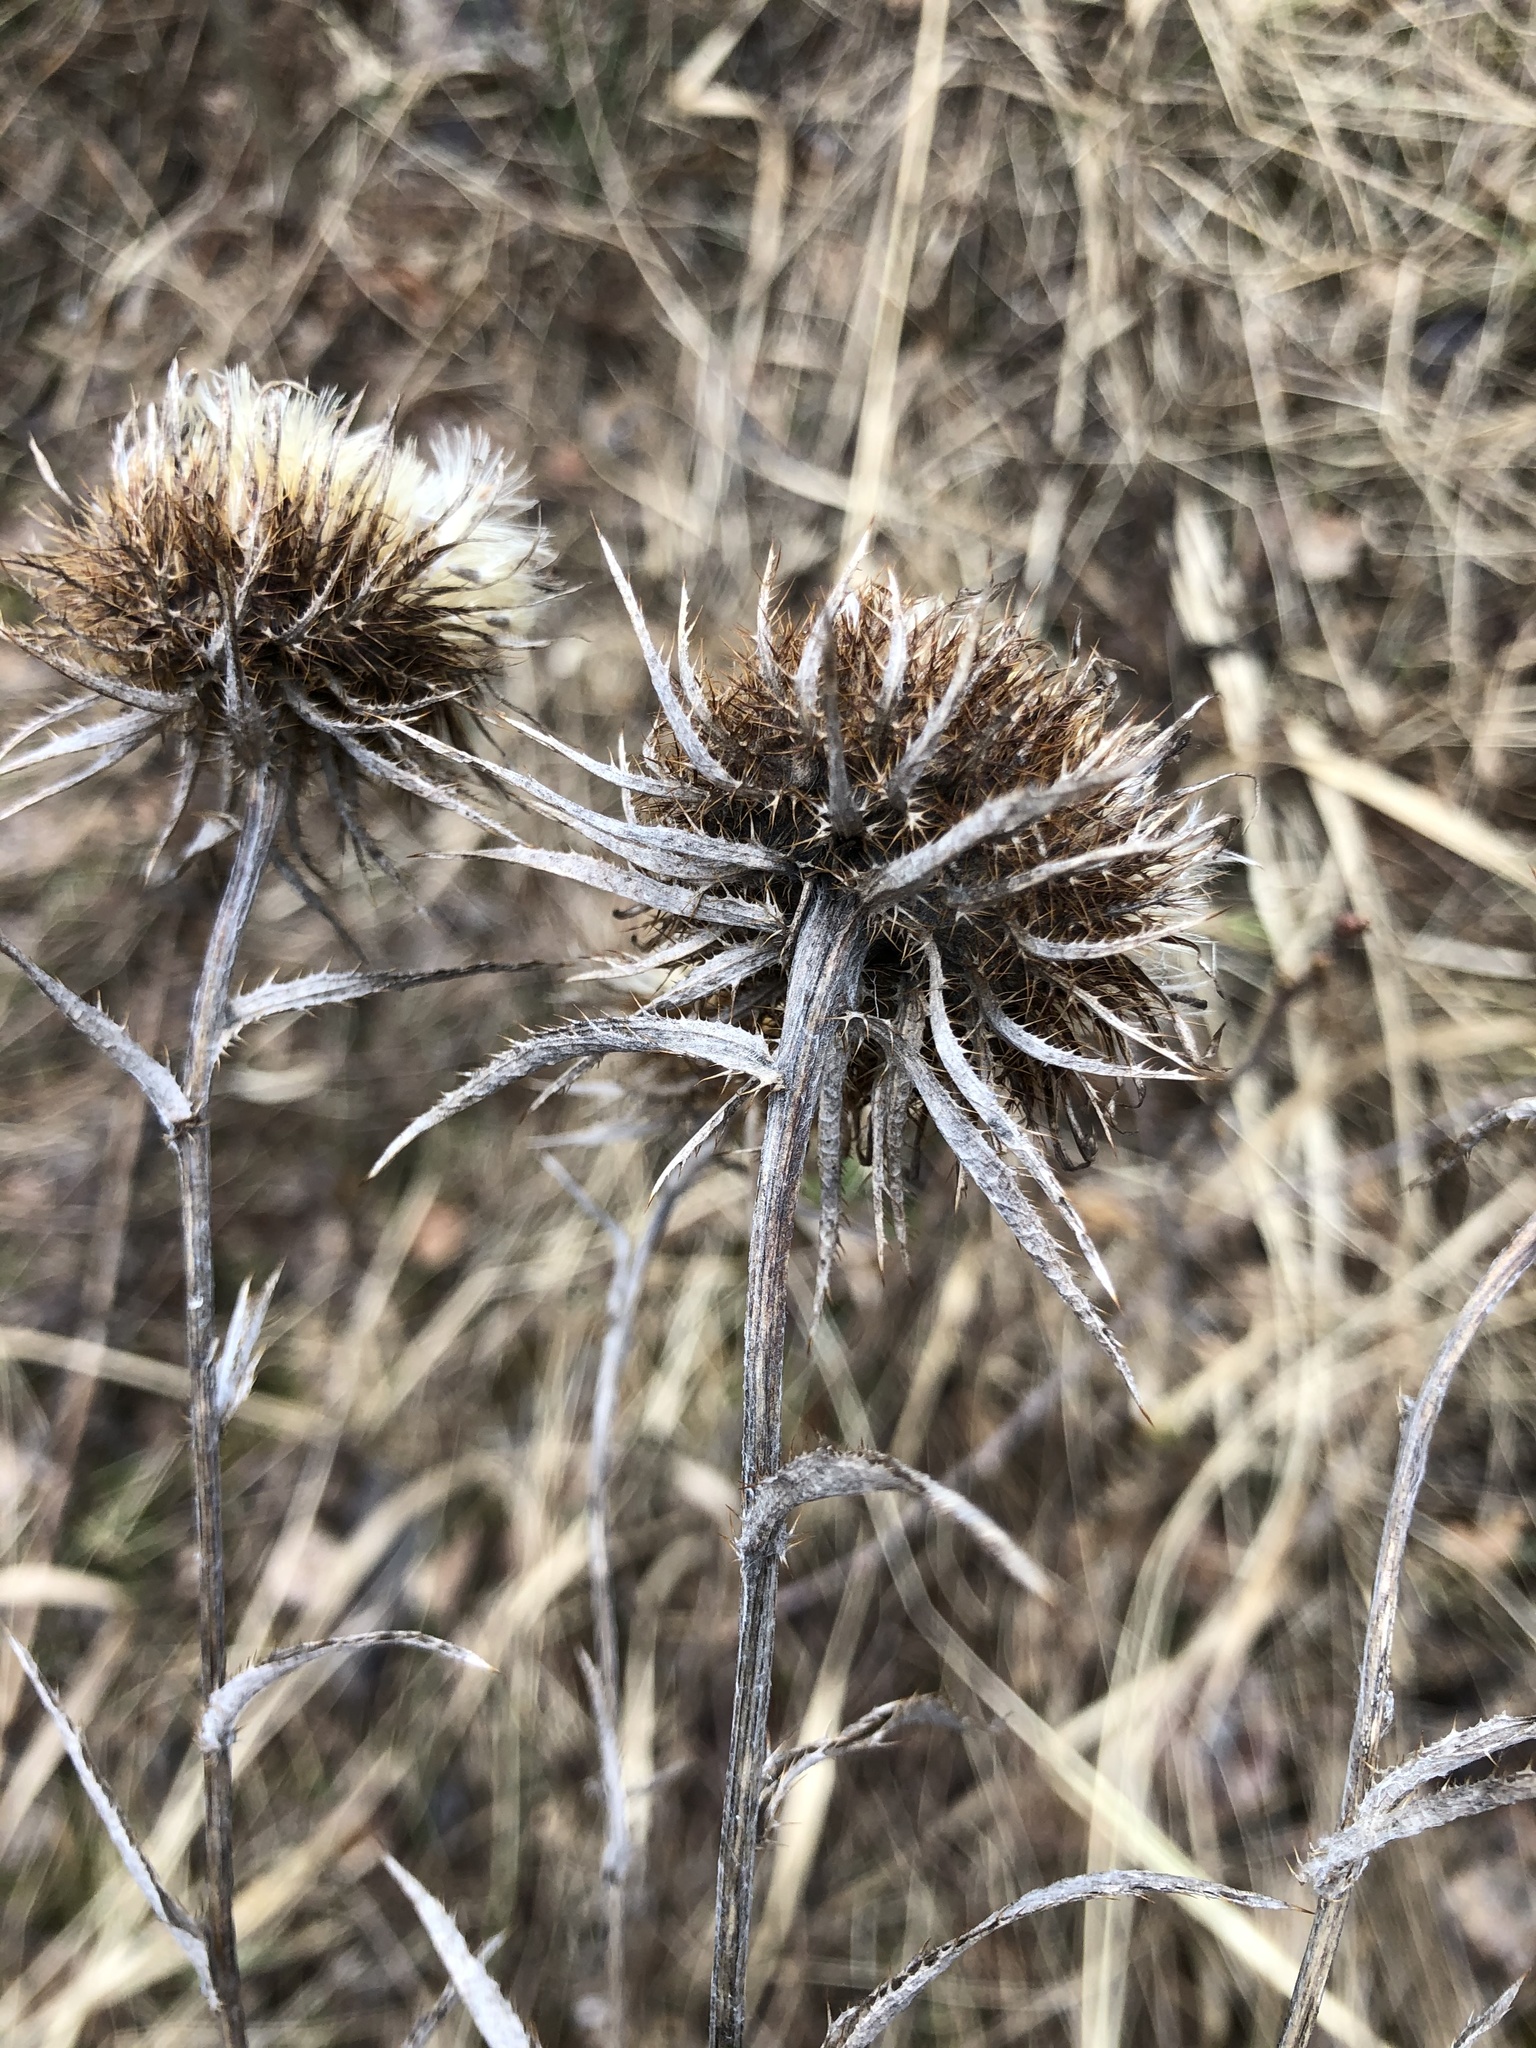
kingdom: Plantae
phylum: Tracheophyta
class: Magnoliopsida
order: Asterales
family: Asteraceae
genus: Carlina
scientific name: Carlina biebersteinii
